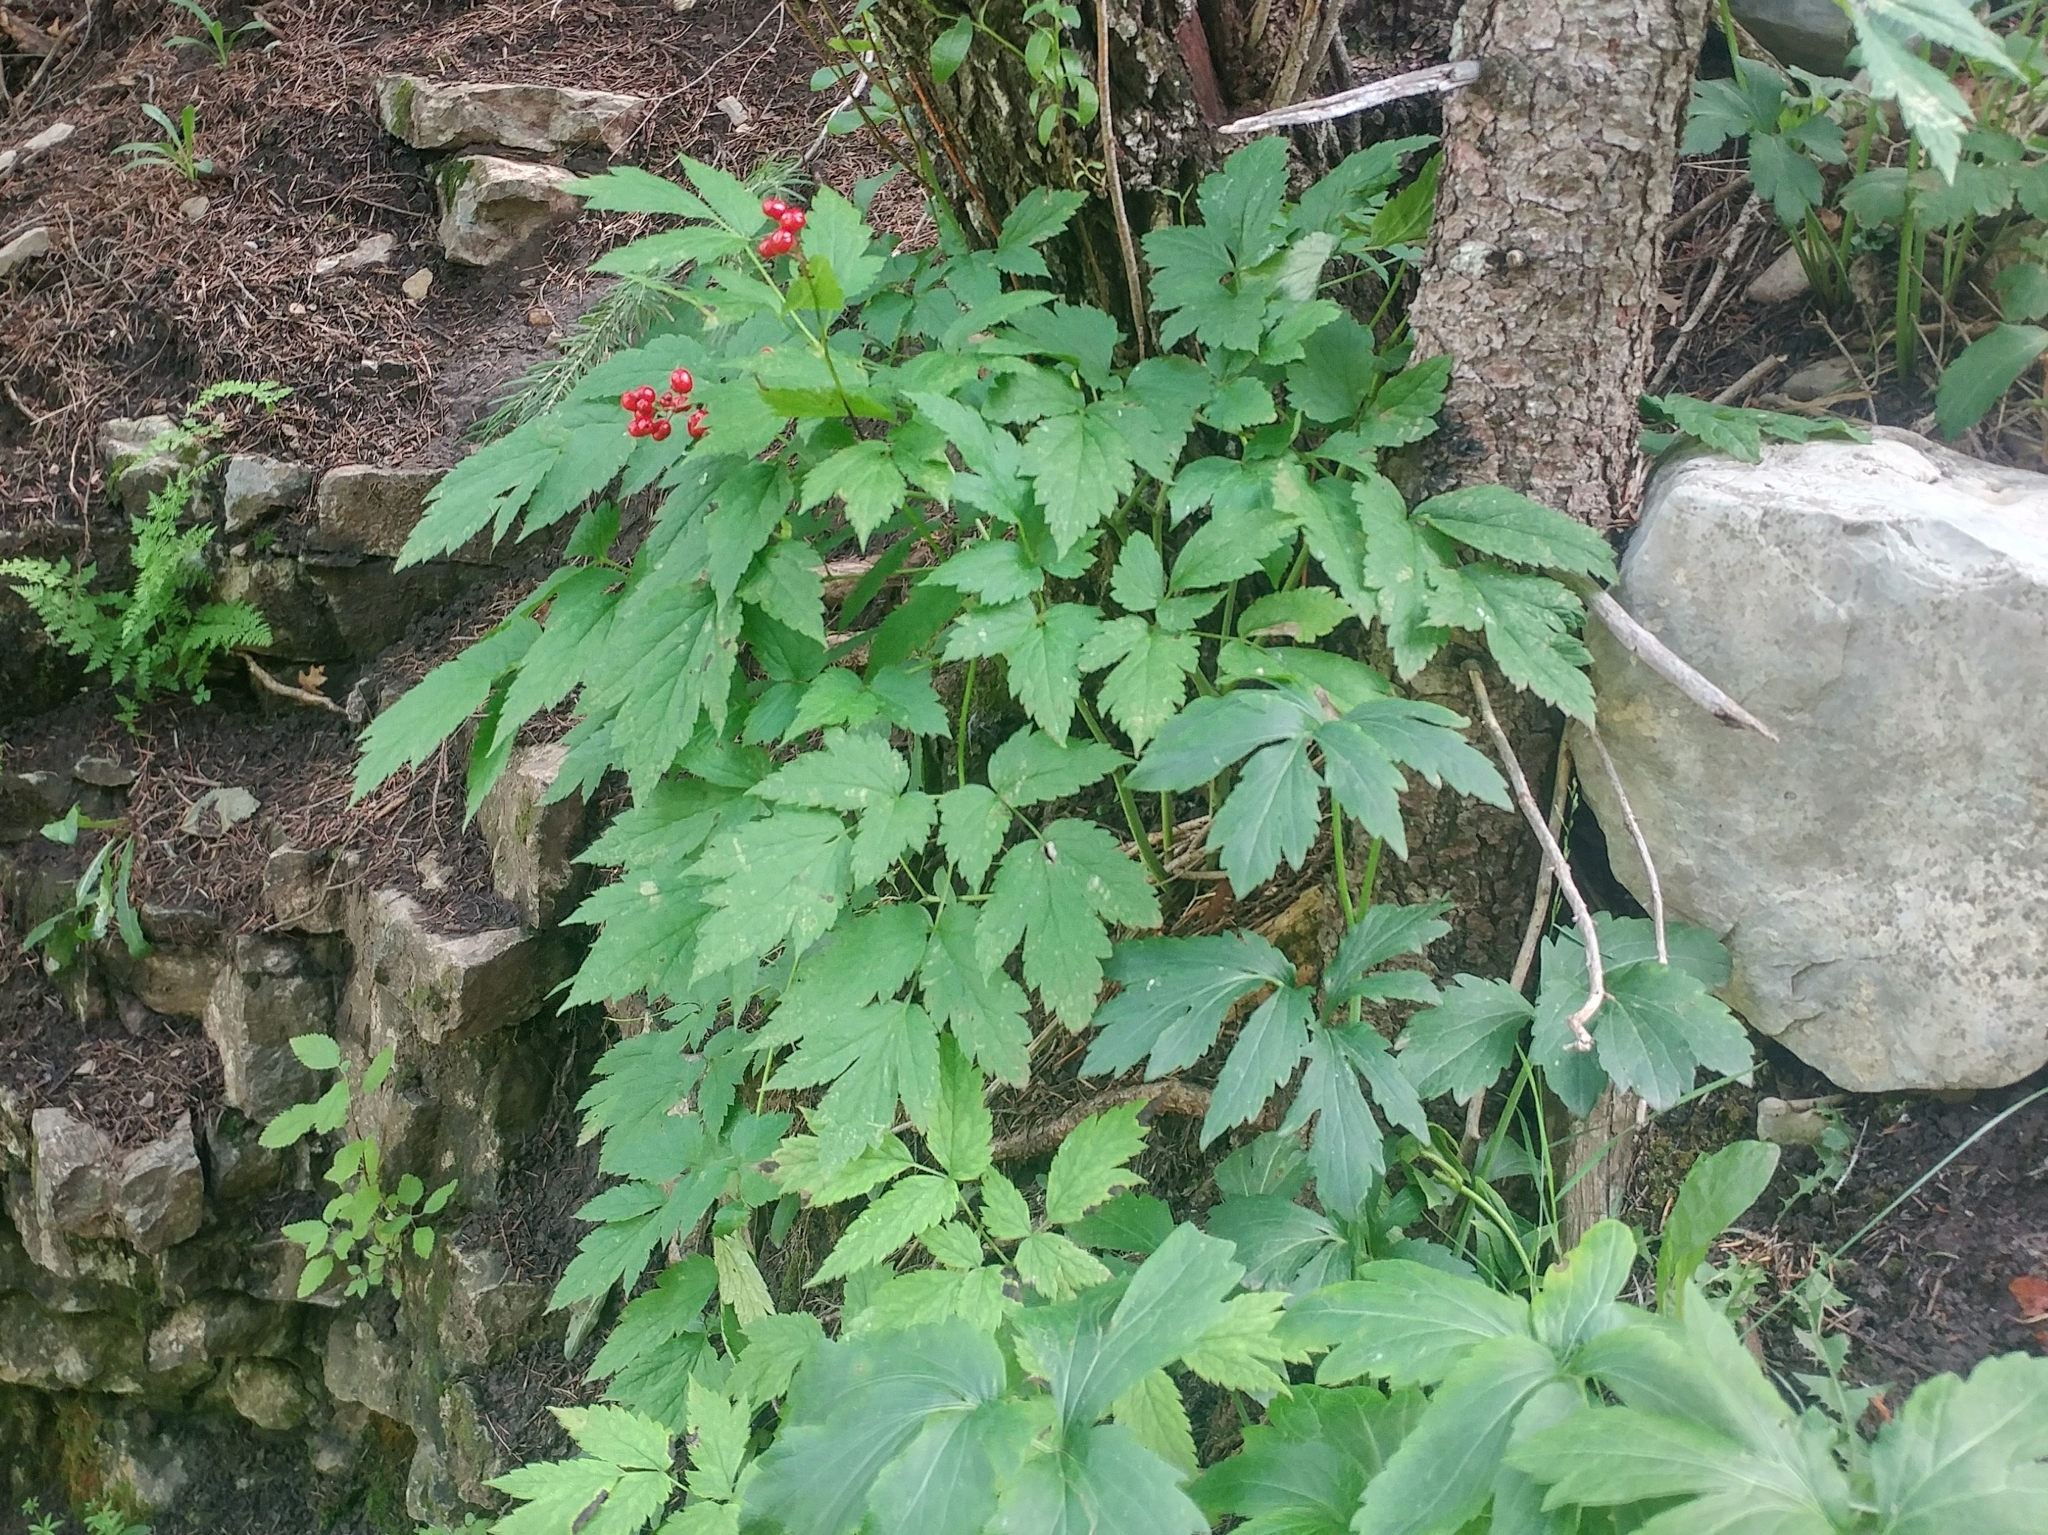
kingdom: Plantae
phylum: Tracheophyta
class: Magnoliopsida
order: Ranunculales
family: Ranunculaceae
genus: Actaea
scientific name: Actaea rubra
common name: Red baneberry
